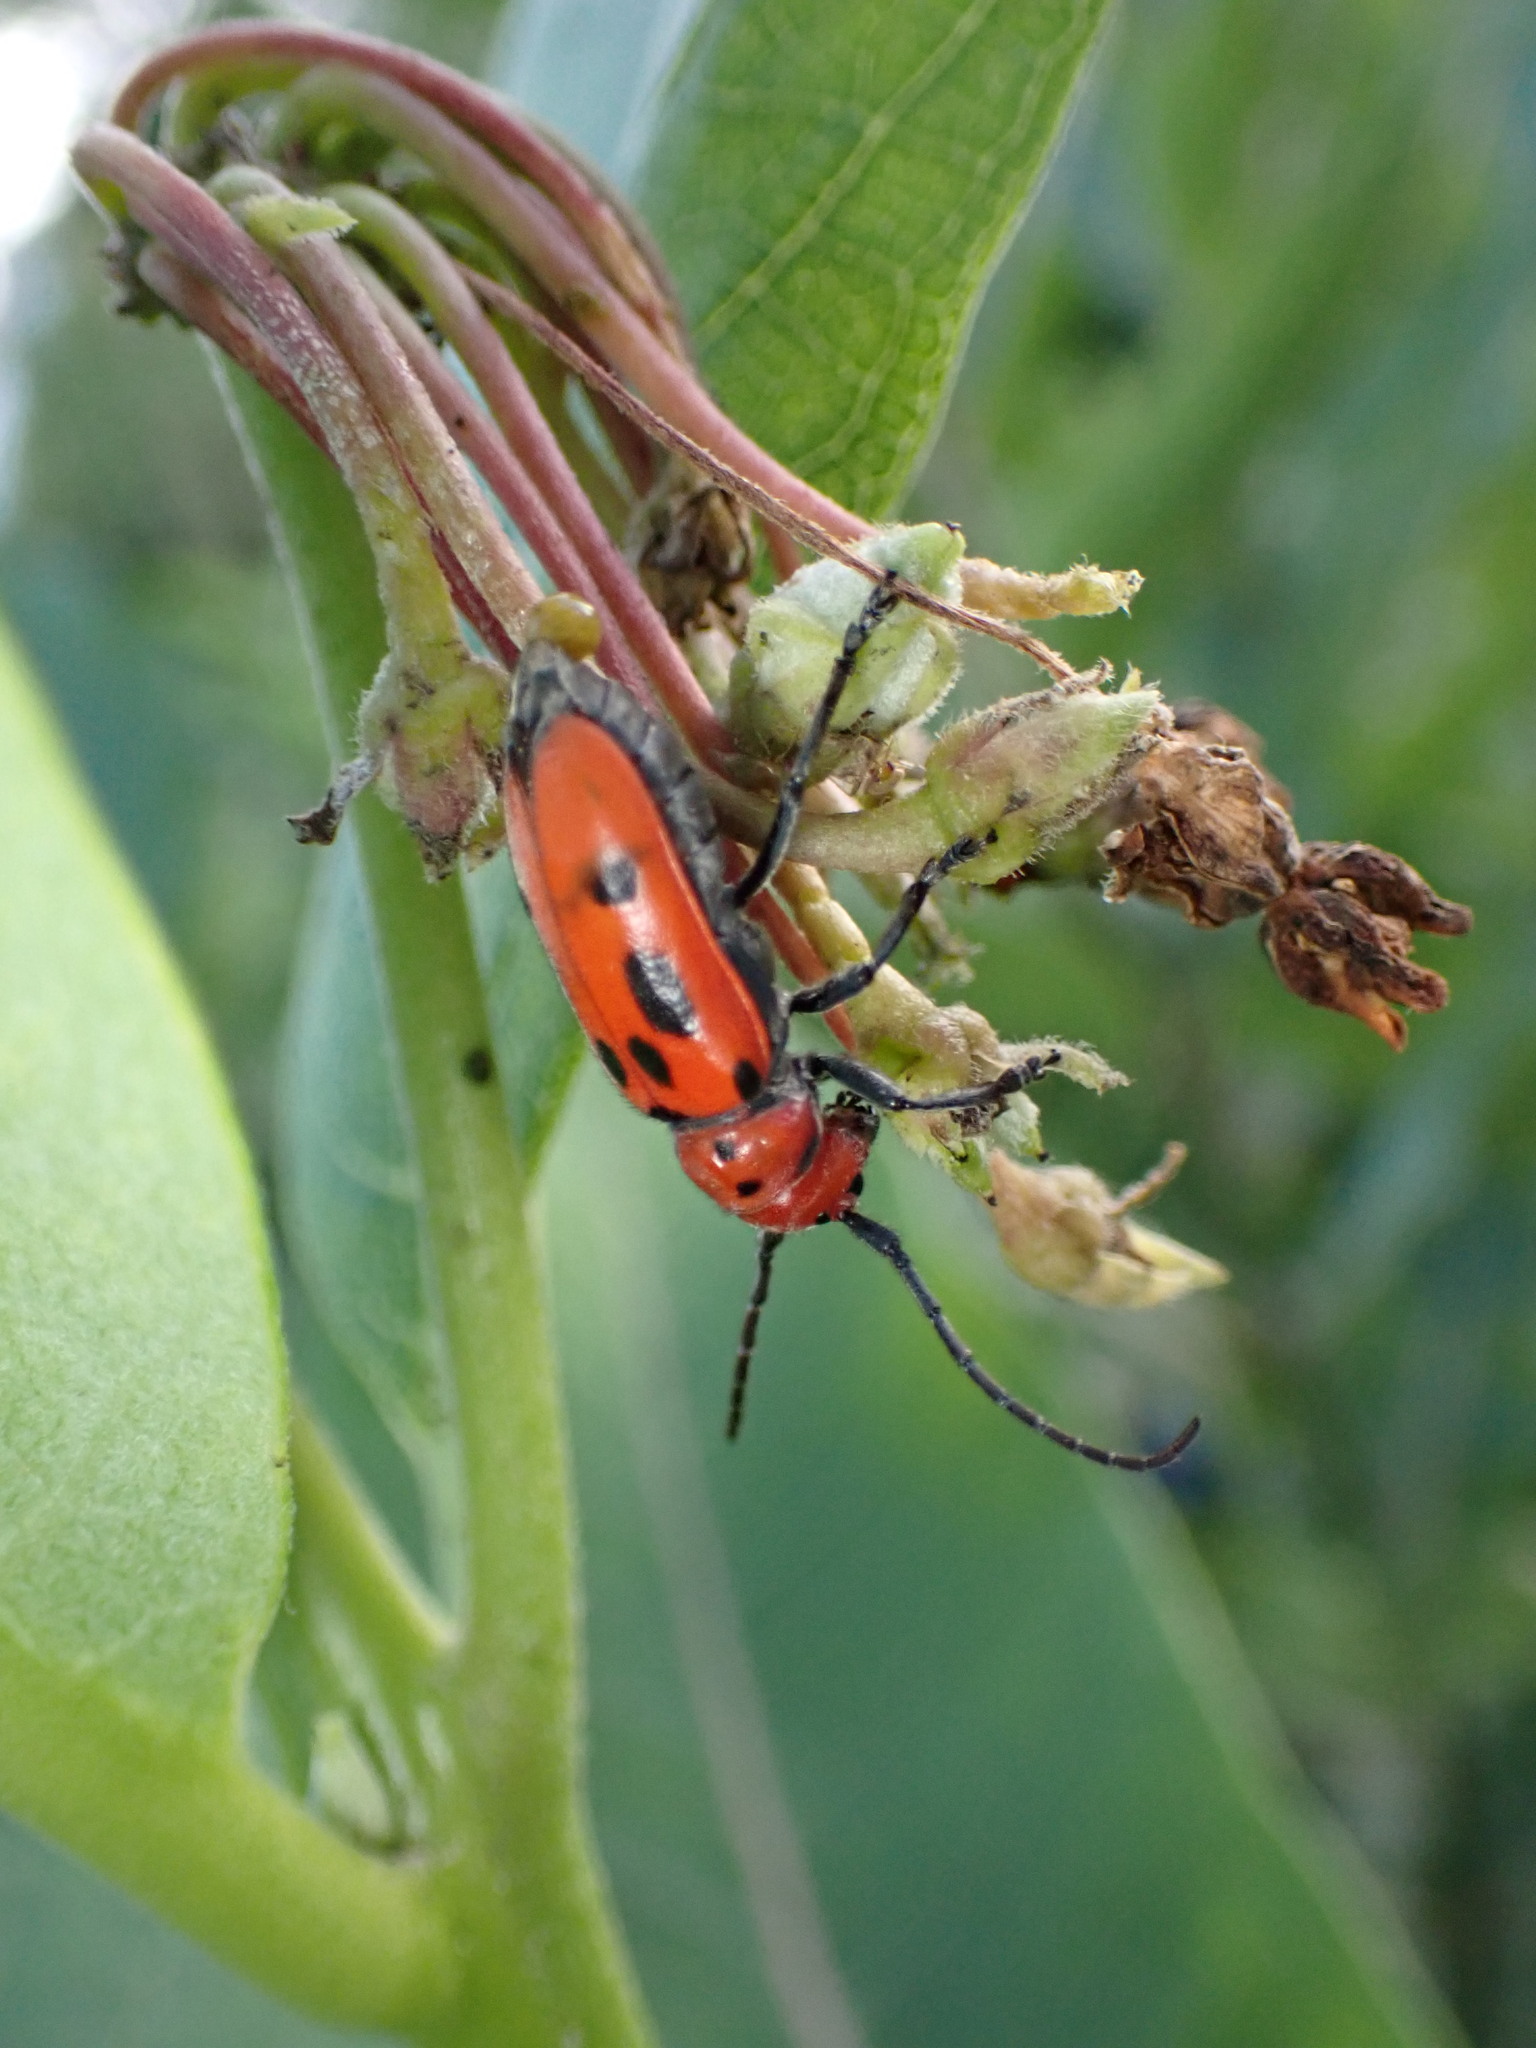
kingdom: Animalia
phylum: Arthropoda
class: Insecta
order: Coleoptera
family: Cerambycidae
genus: Tetraopes
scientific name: Tetraopes tetrophthalmus
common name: Red milkweed beetle
